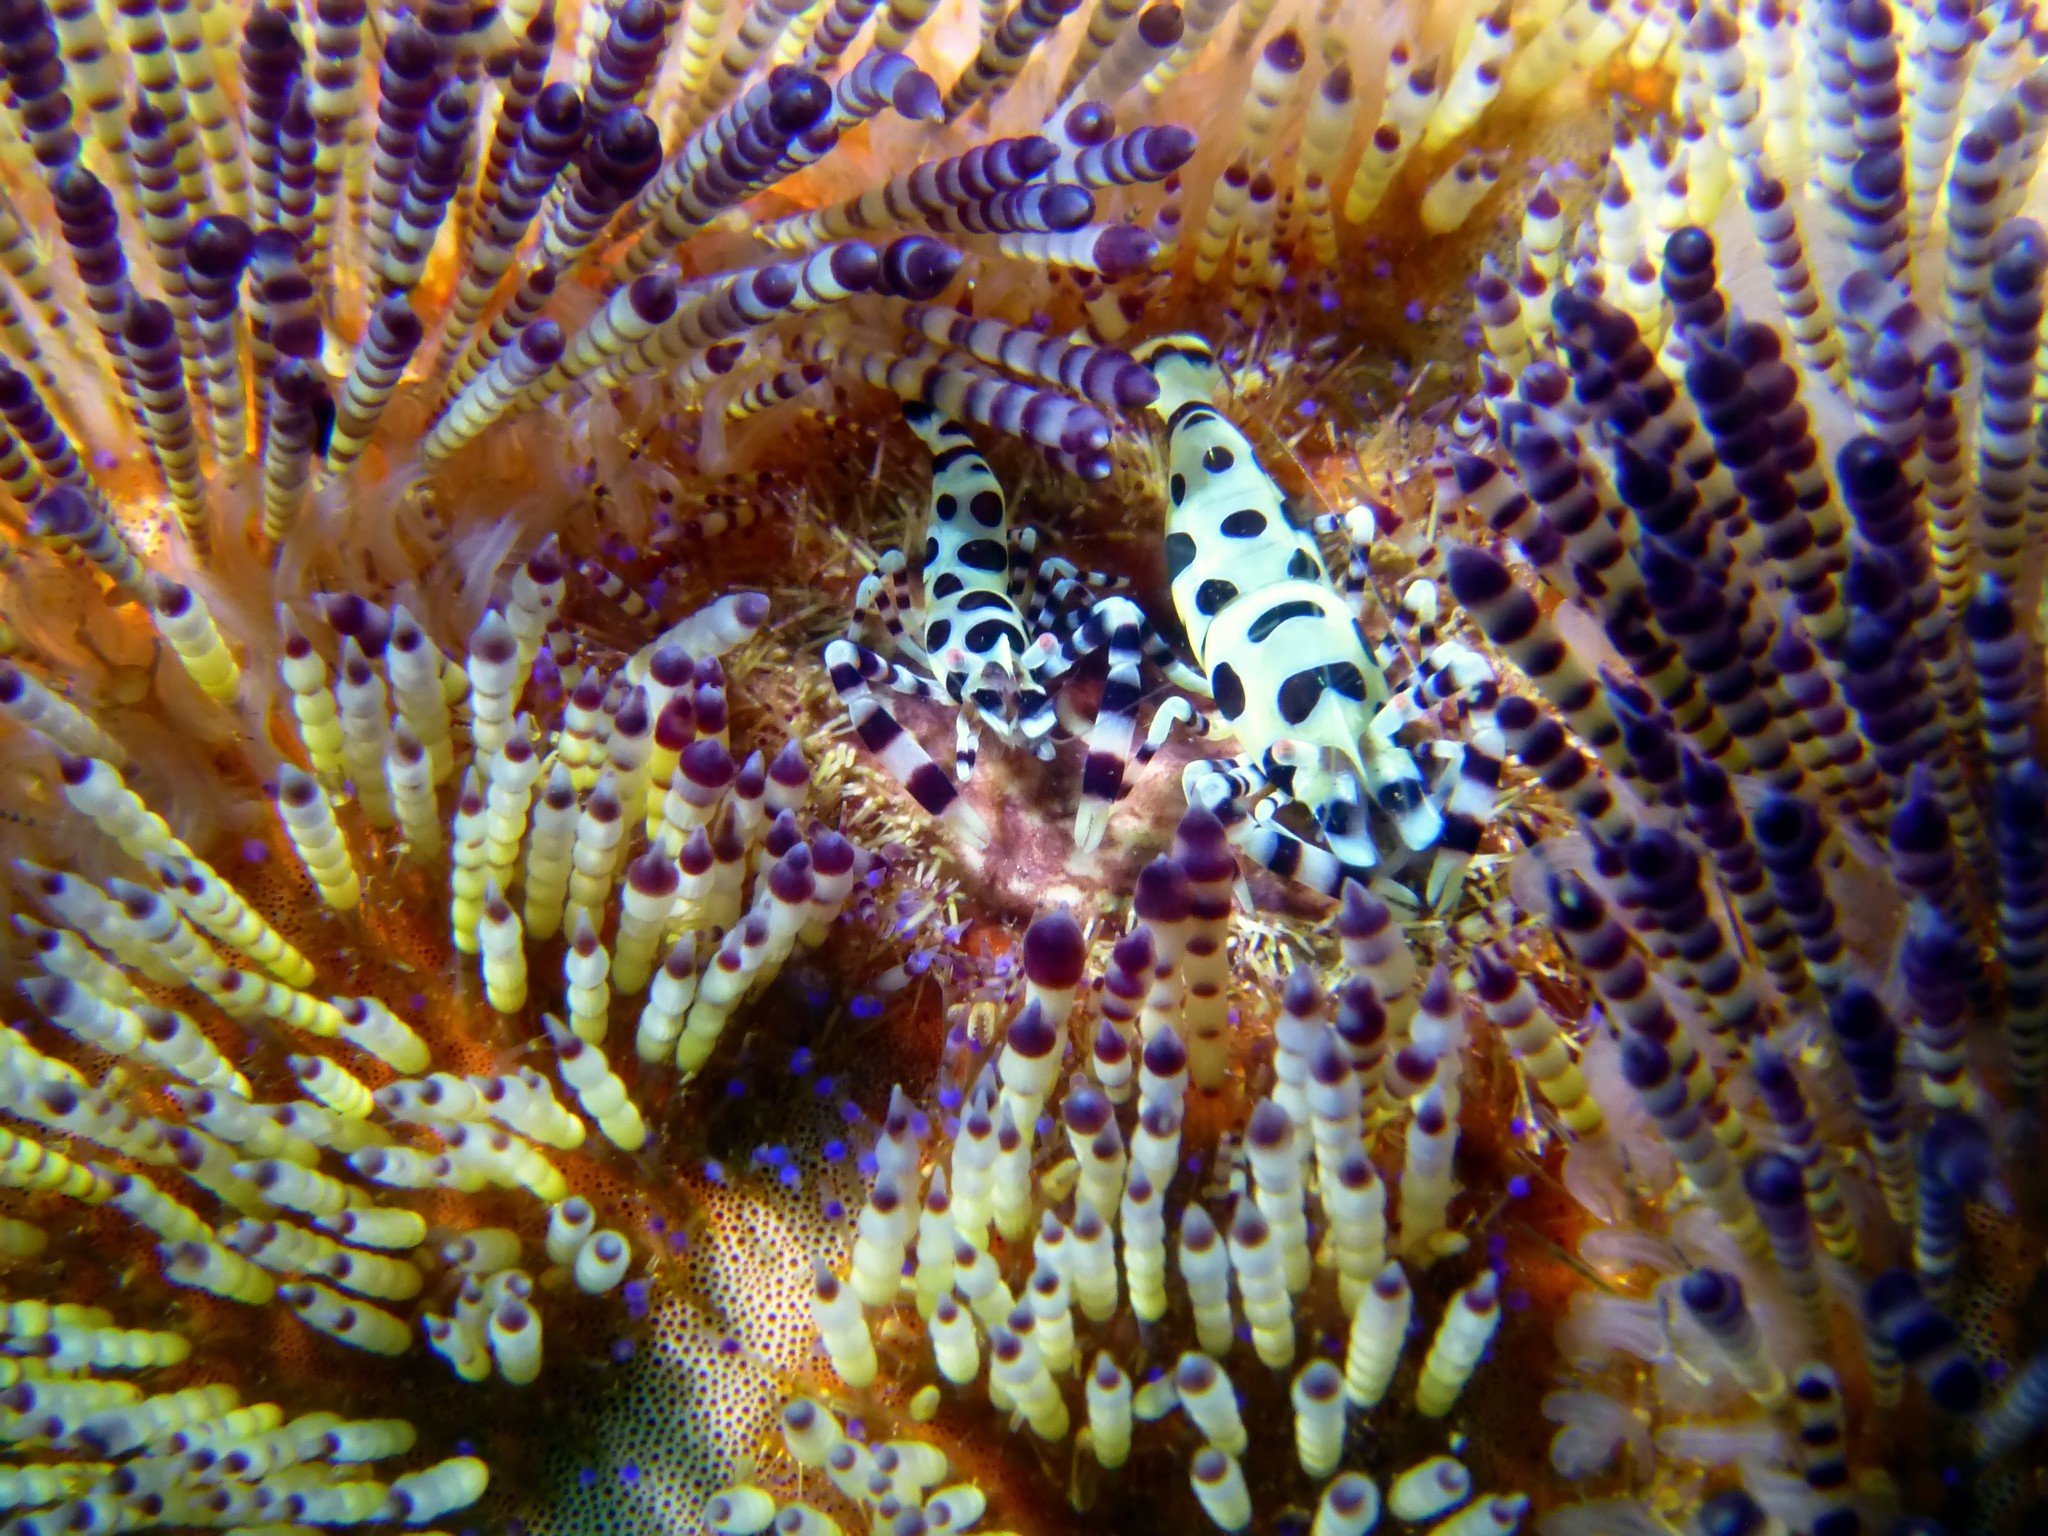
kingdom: Animalia
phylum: Arthropoda
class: Malacostraca
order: Decapoda
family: Palaemonidae
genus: Periclimenes
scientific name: Periclimenes colemani
